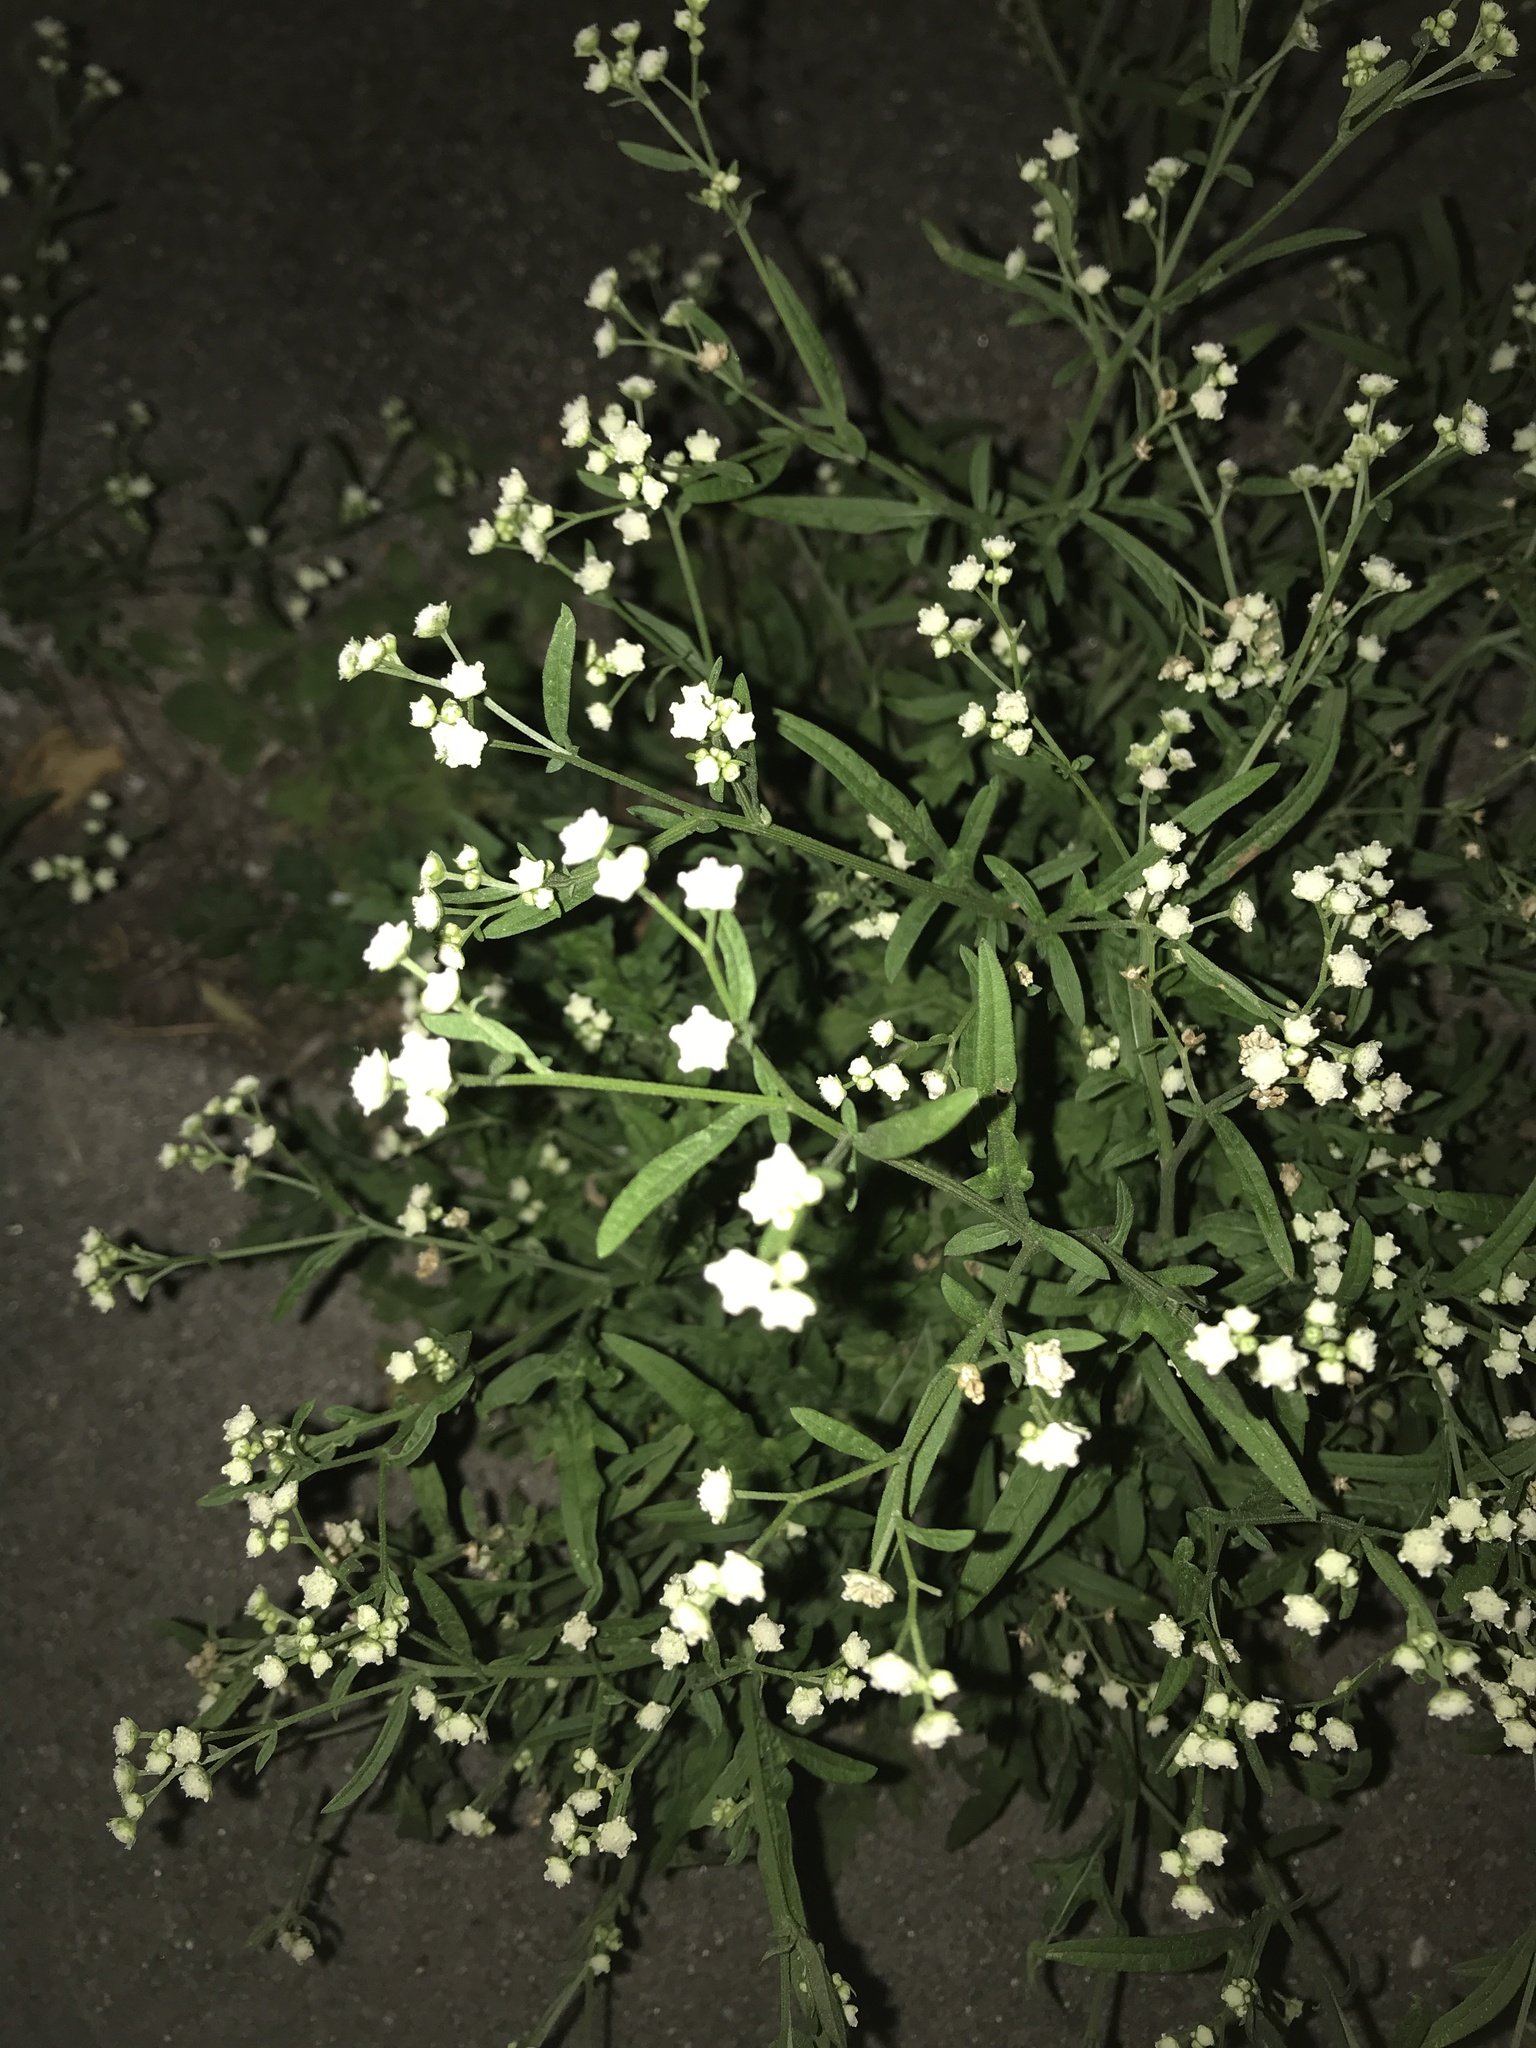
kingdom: Plantae
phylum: Tracheophyta
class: Magnoliopsida
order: Asterales
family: Asteraceae
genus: Parthenium
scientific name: Parthenium hysterophorus
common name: Santa maria feverfew
